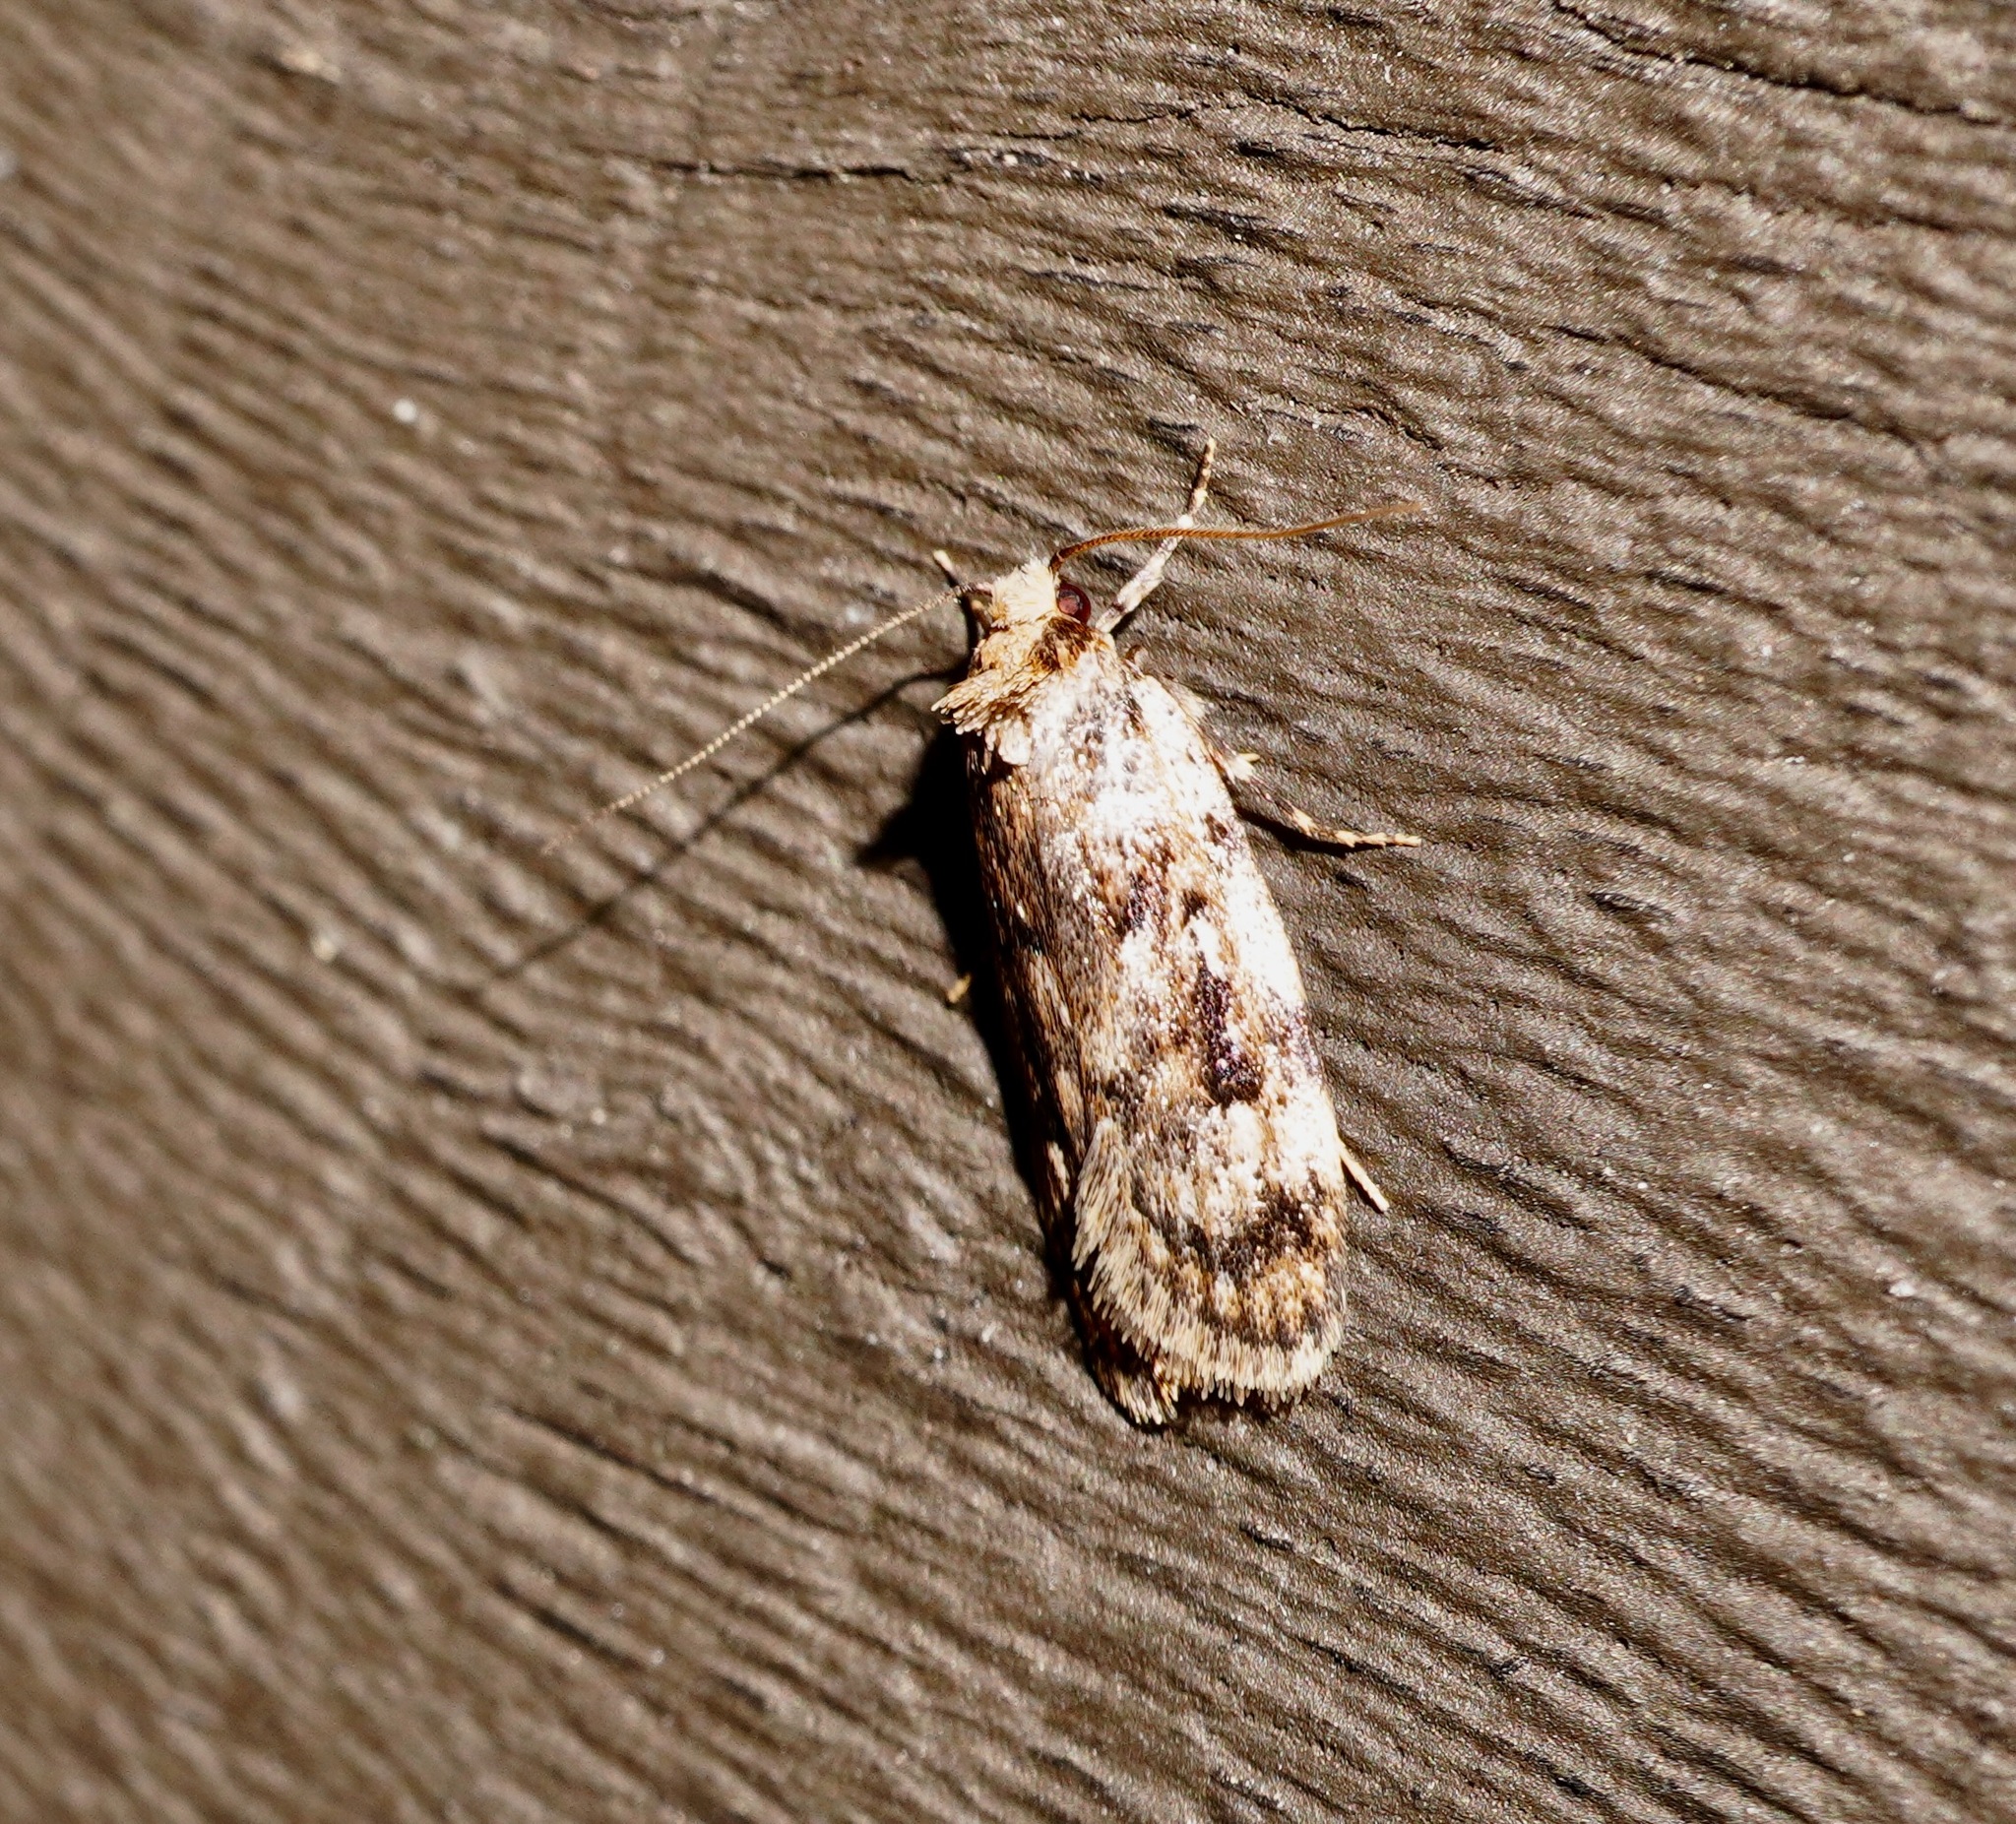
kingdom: Animalia
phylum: Arthropoda
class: Insecta
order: Lepidoptera
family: Oecophoridae
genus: Barea
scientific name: Barea exarcha
